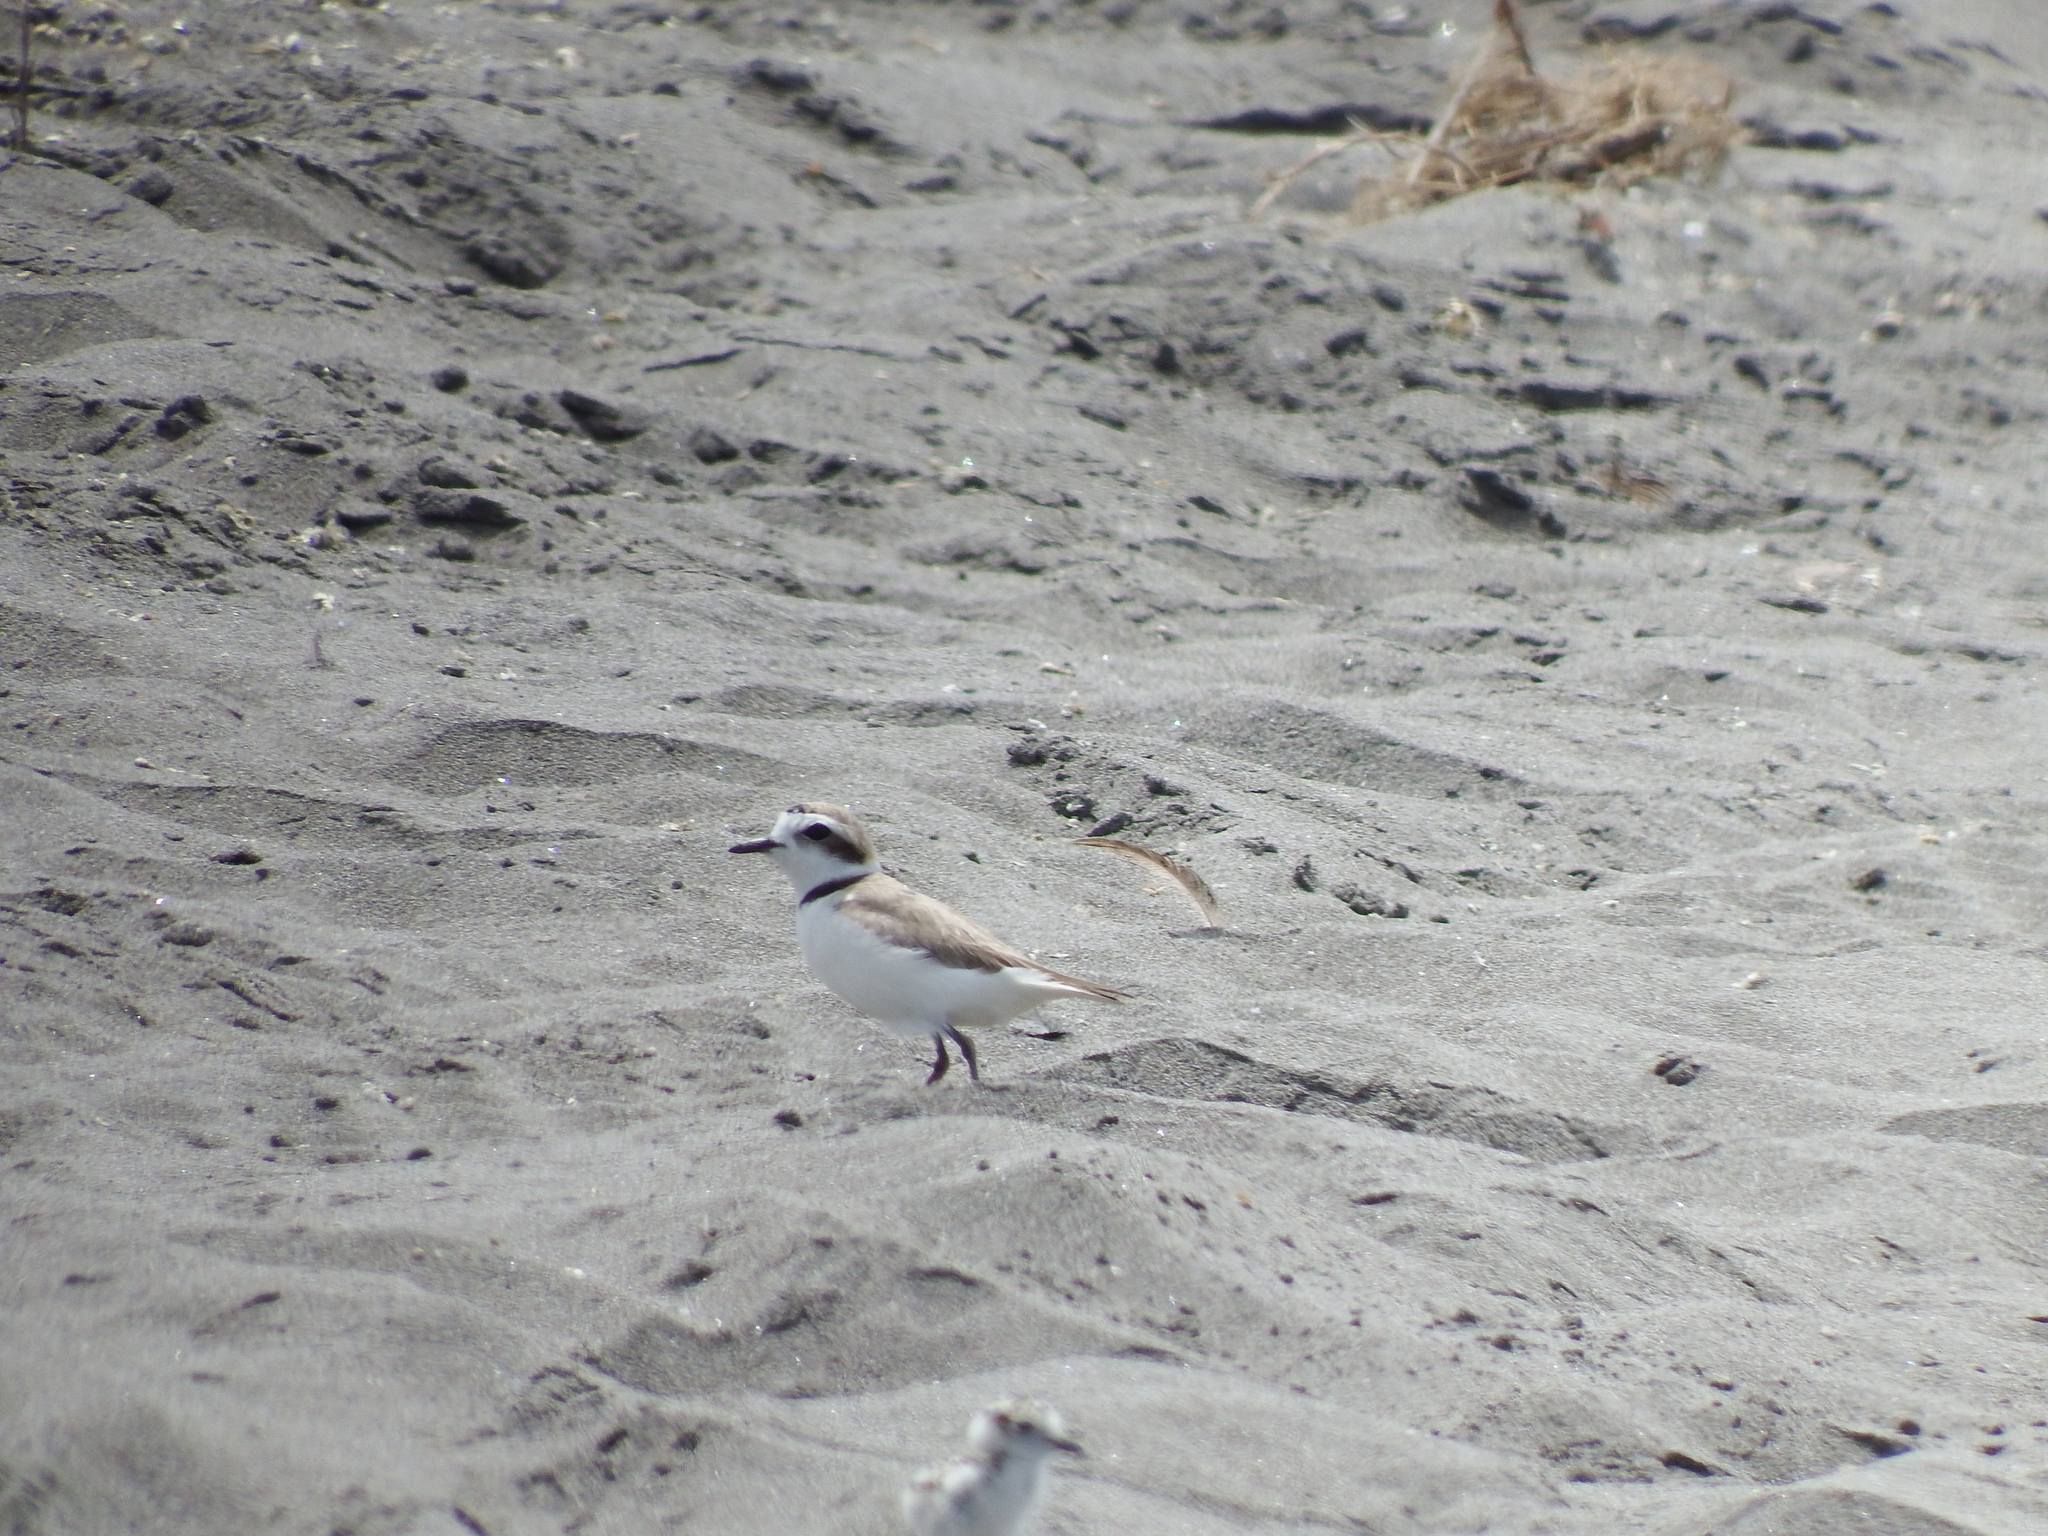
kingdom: Animalia
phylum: Chordata
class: Aves
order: Charadriiformes
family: Charadriidae
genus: Anarhynchus
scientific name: Anarhynchus
